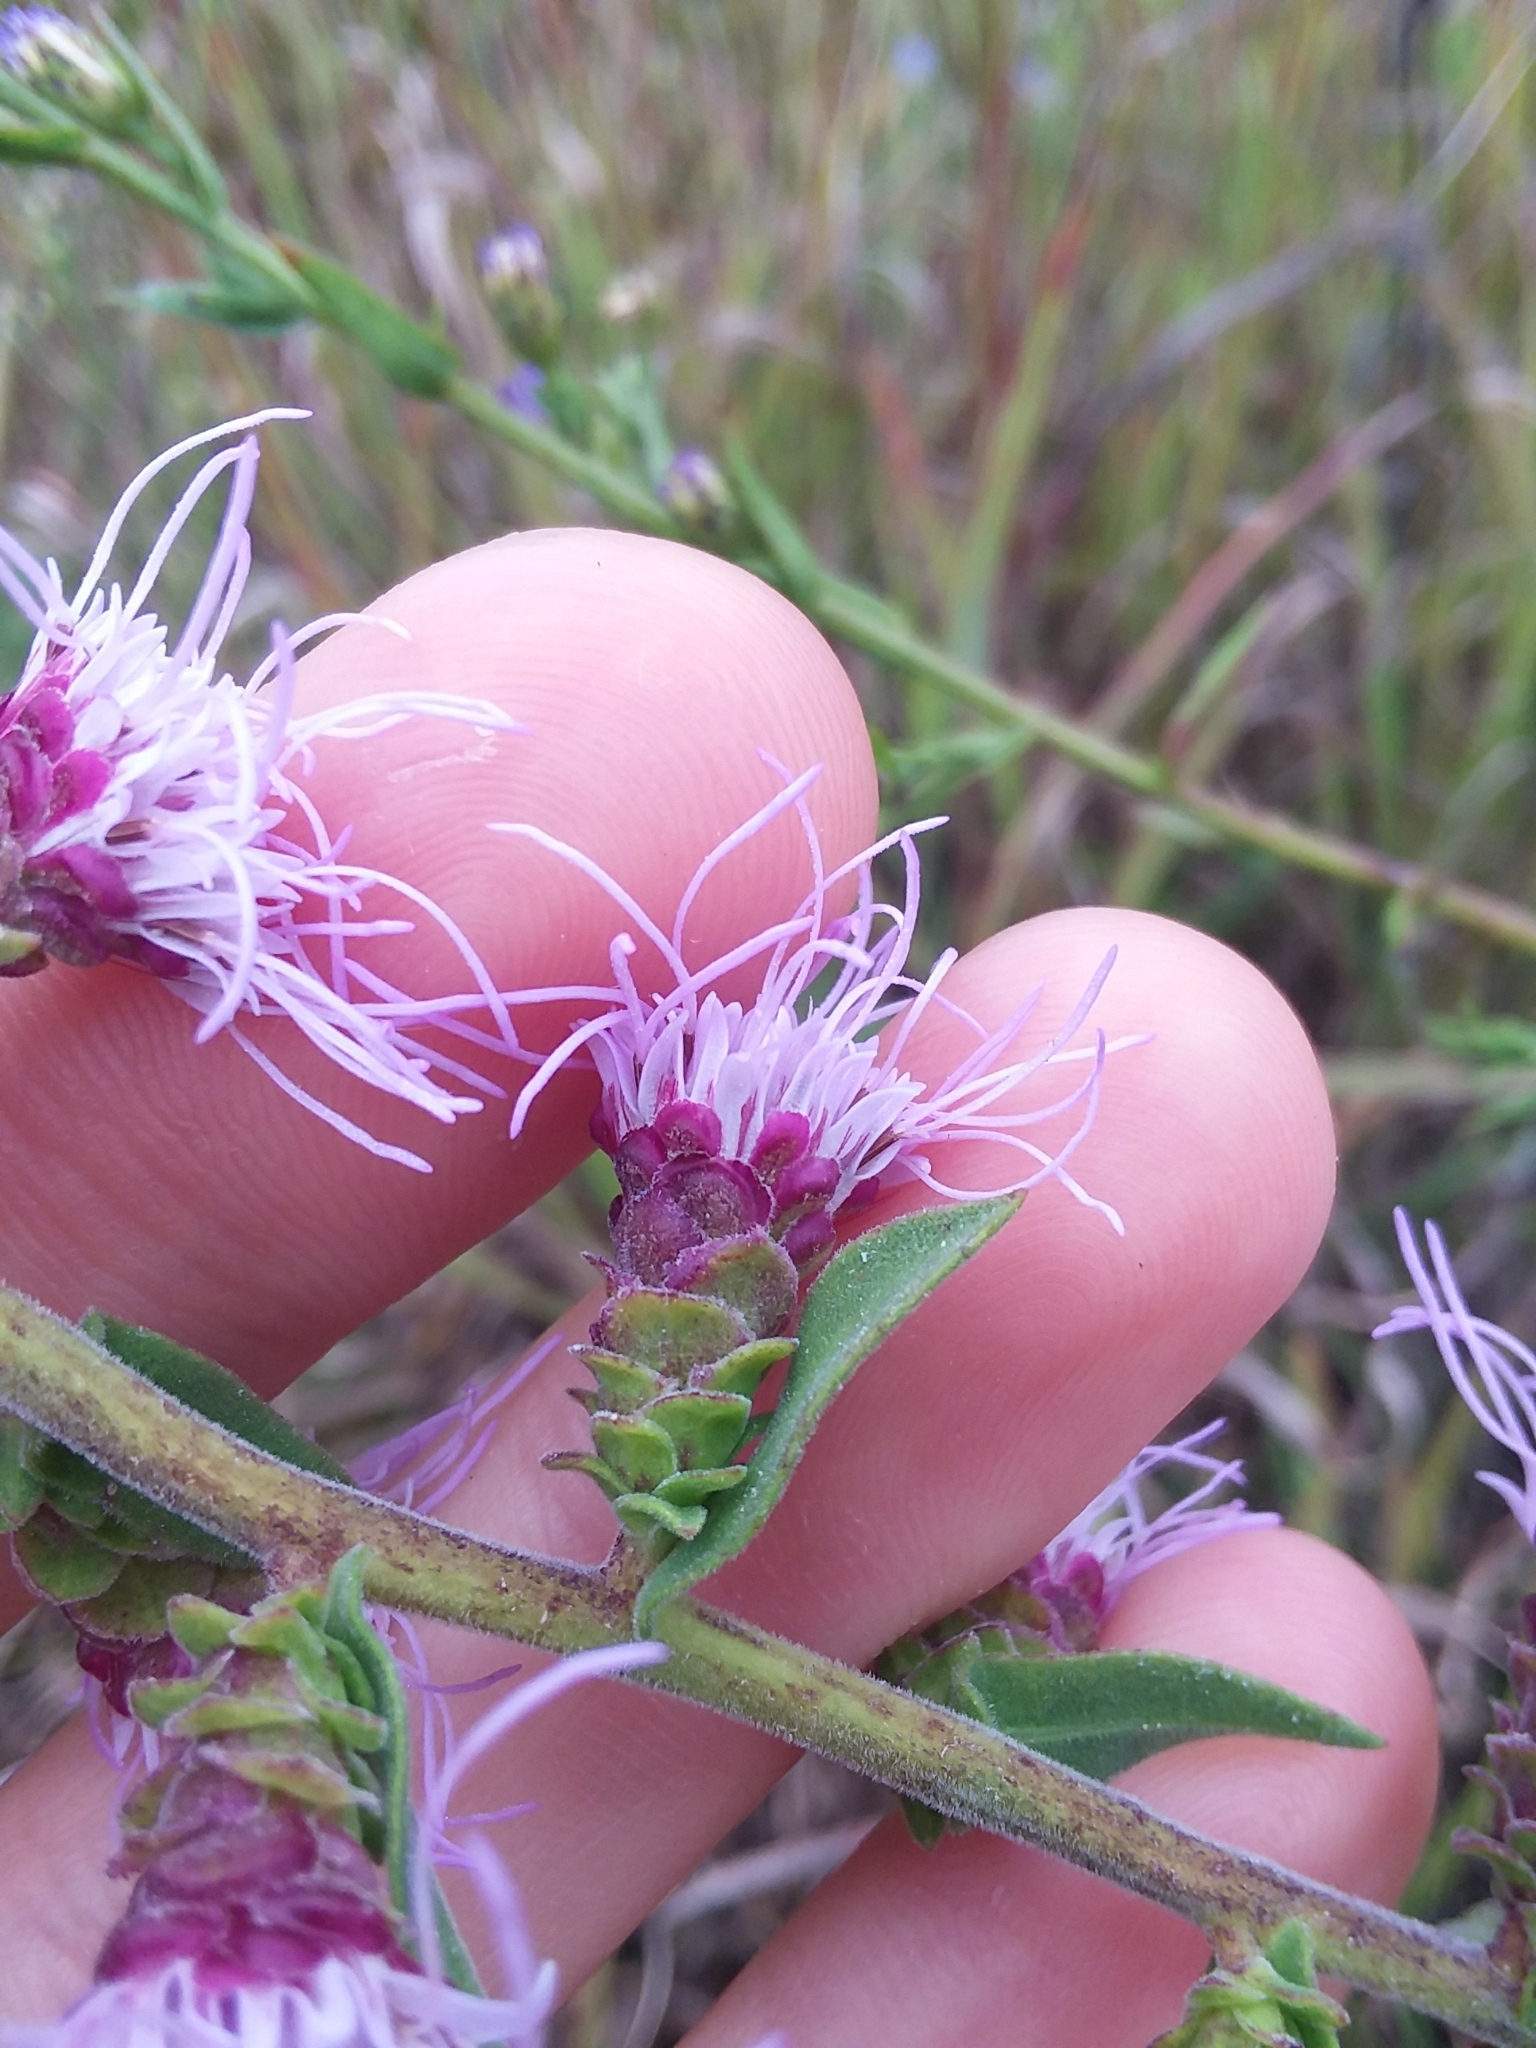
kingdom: Plantae
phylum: Tracheophyta
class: Magnoliopsida
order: Asterales
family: Asteraceae
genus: Liatris
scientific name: Liatris squarrulosa
